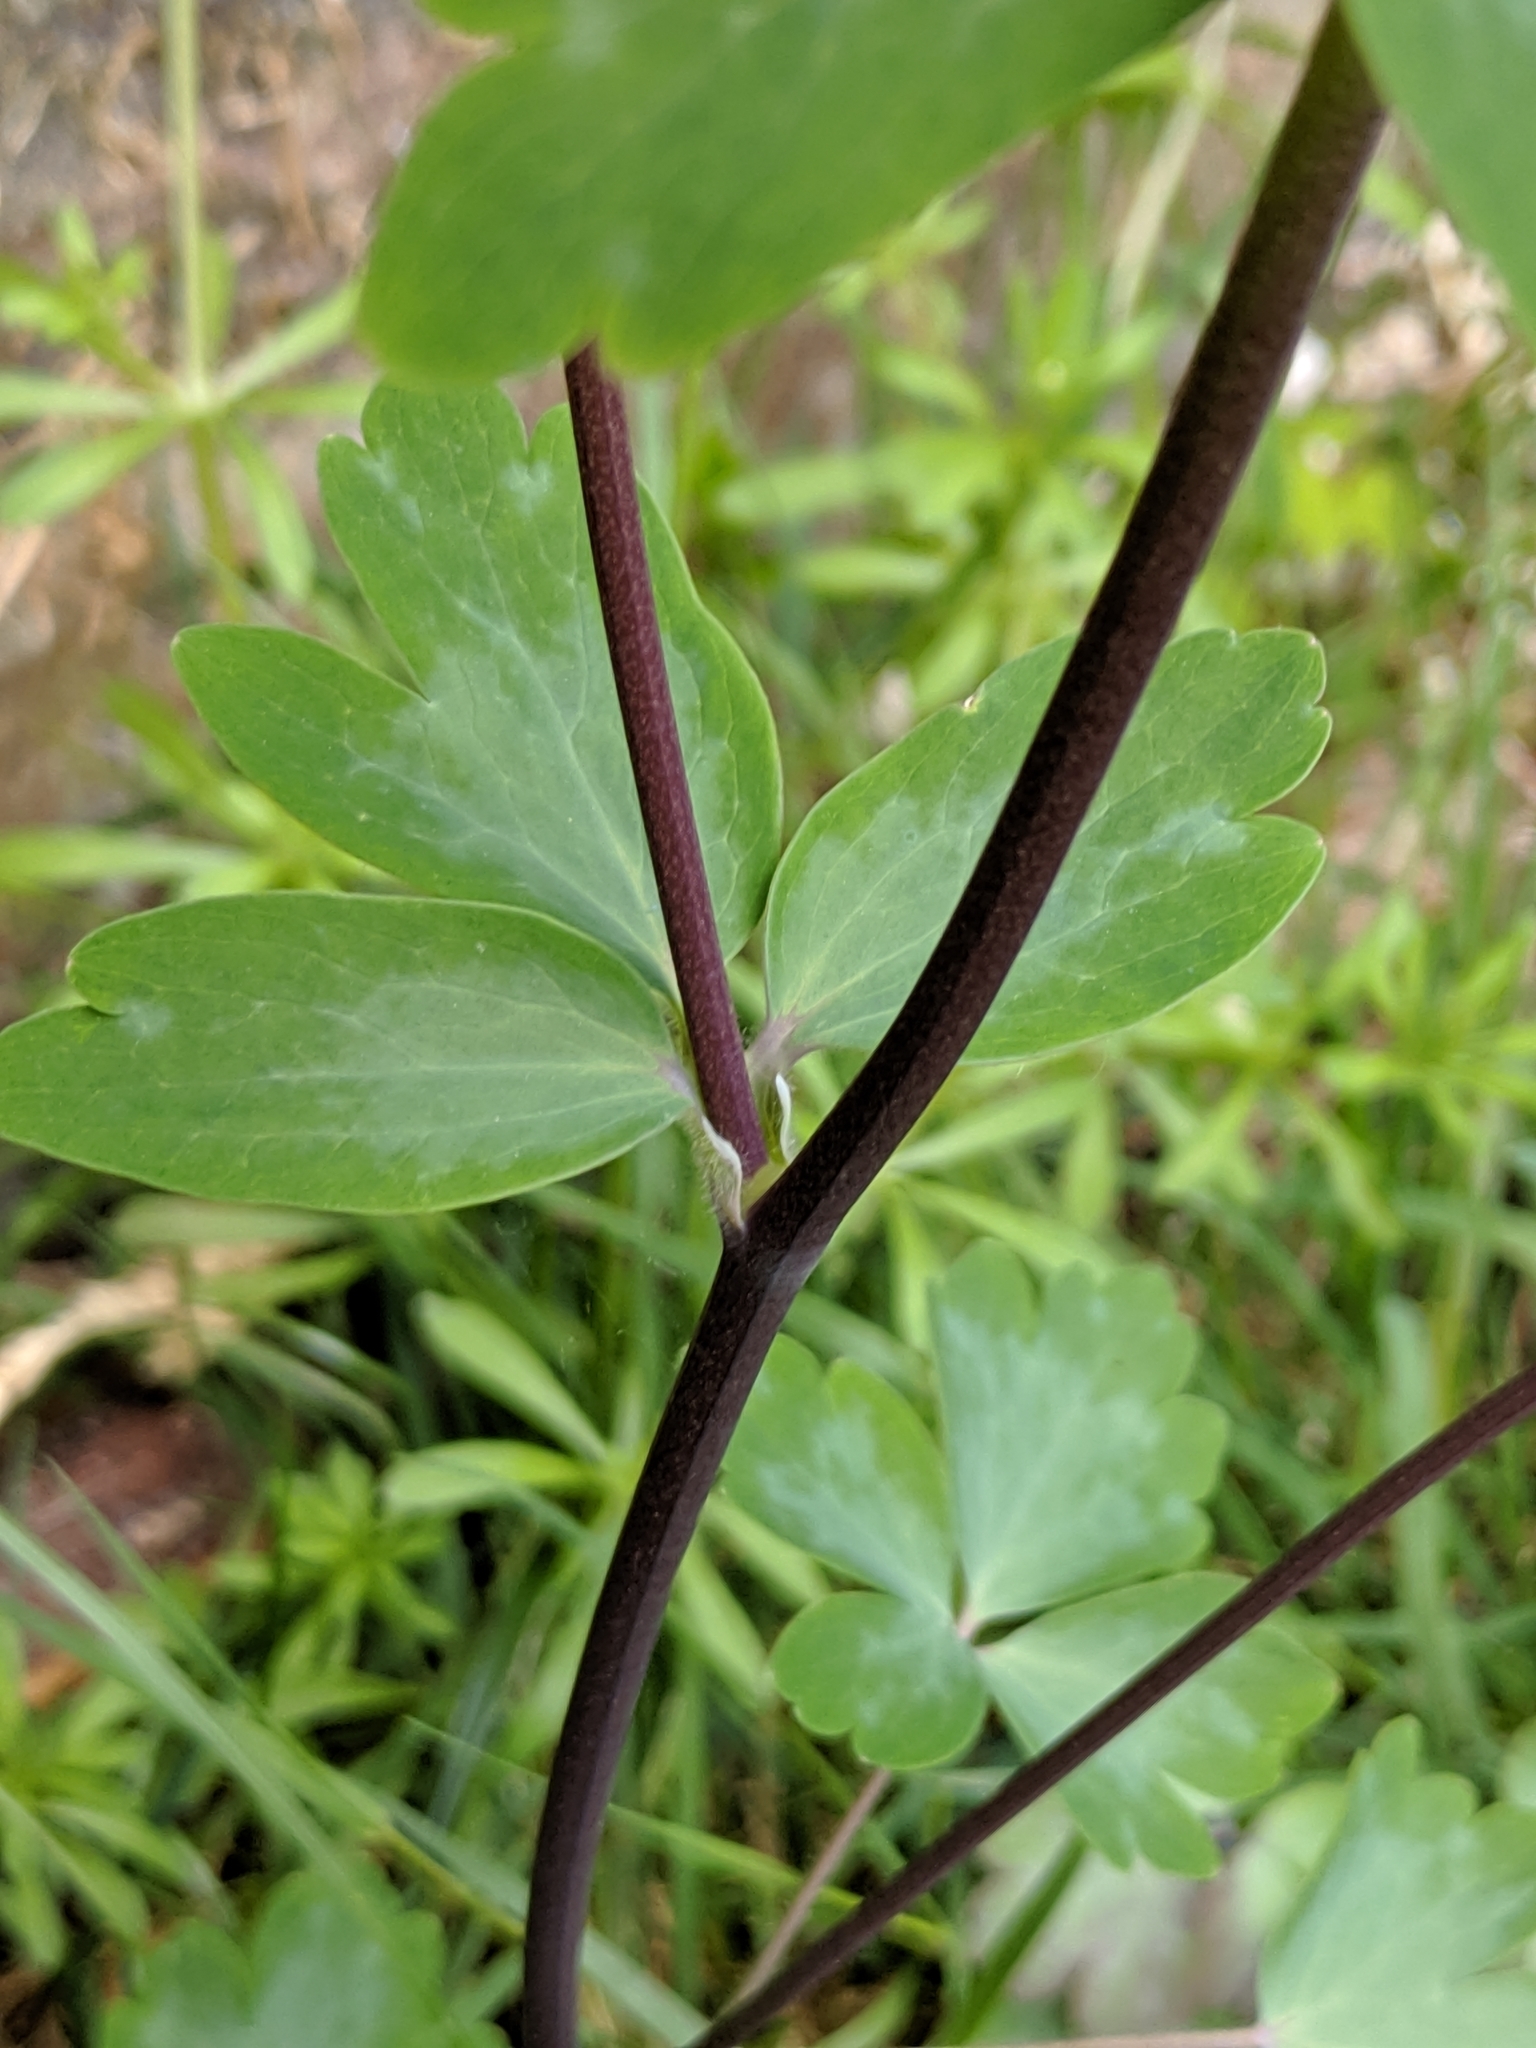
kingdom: Plantae
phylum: Tracheophyta
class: Magnoliopsida
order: Ranunculales
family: Ranunculaceae
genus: Aquilegia
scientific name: Aquilegia vulgaris
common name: Columbine
